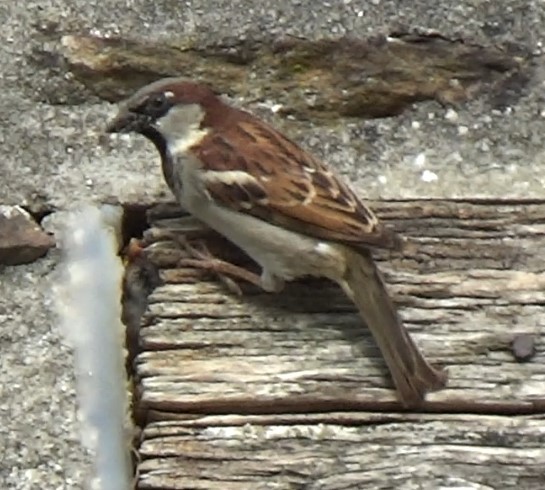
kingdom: Animalia
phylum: Chordata
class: Aves
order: Passeriformes
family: Passeridae
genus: Passer
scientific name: Passer domesticus
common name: House sparrow
